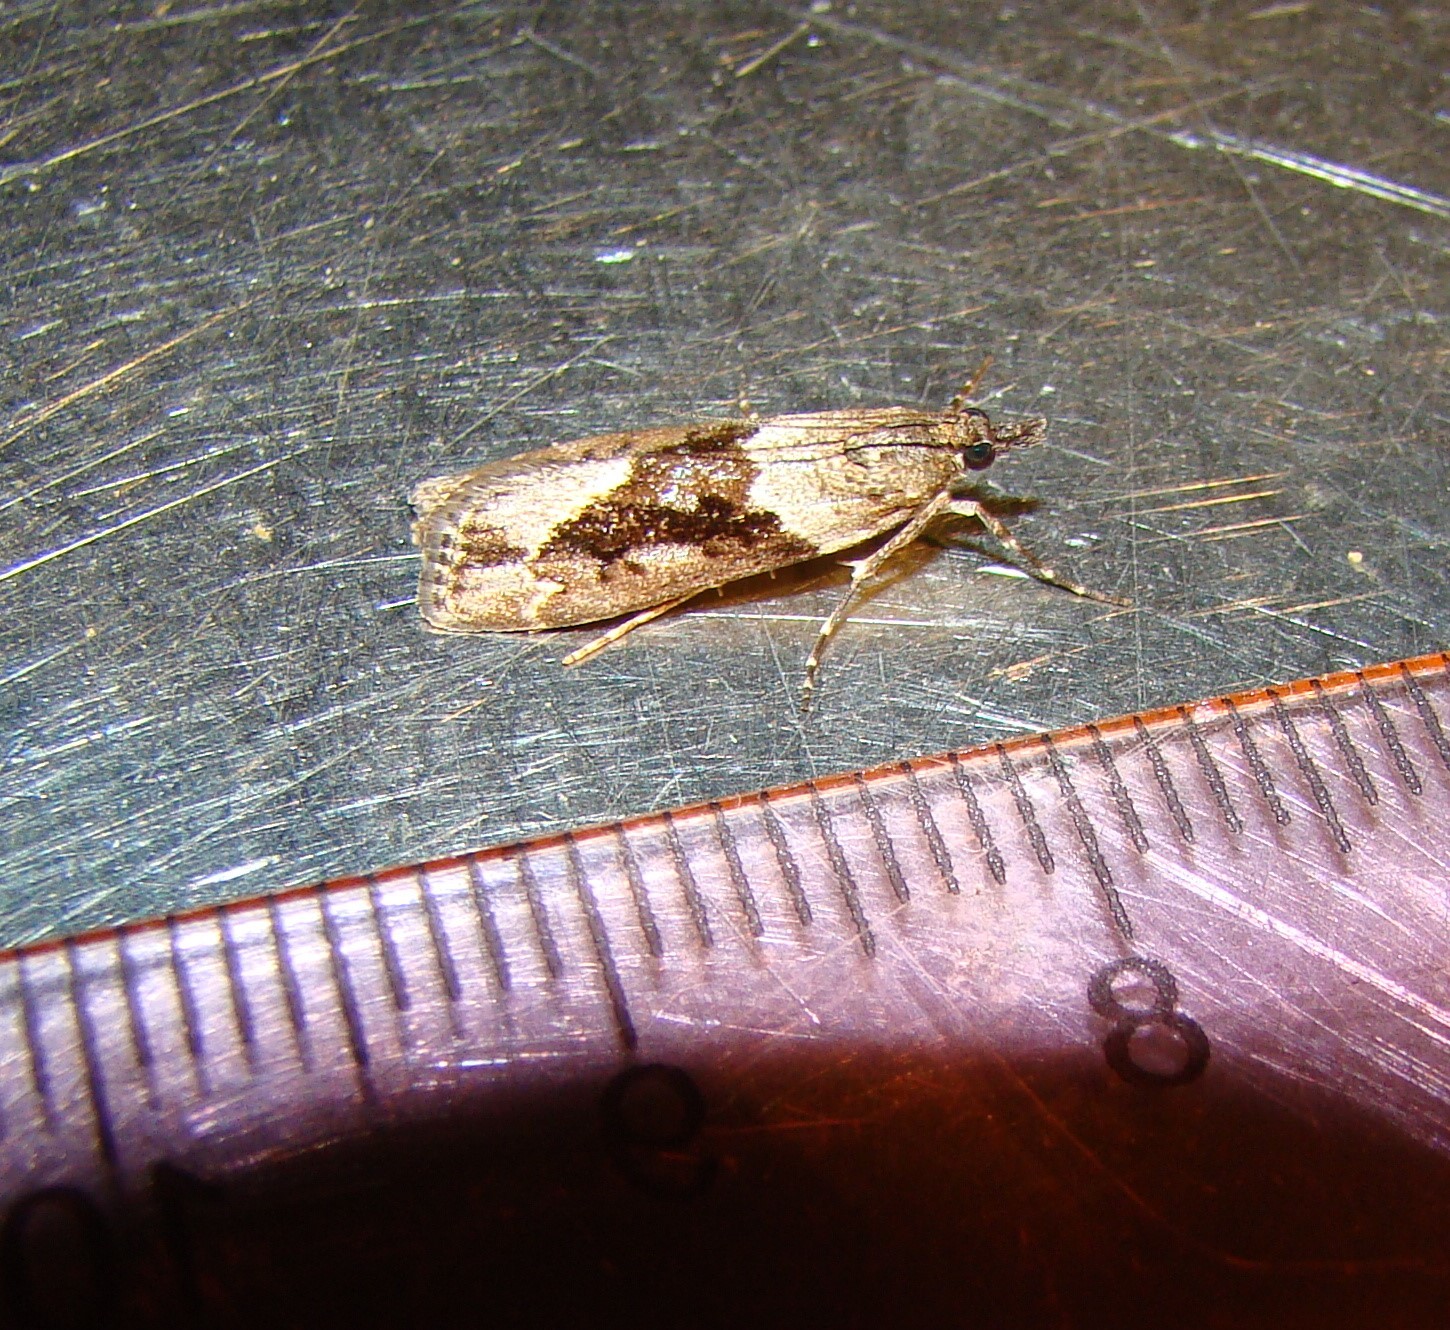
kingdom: Animalia
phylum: Arthropoda
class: Insecta
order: Lepidoptera
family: Crambidae
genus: Eudonia
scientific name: Eudonia submarginalis
